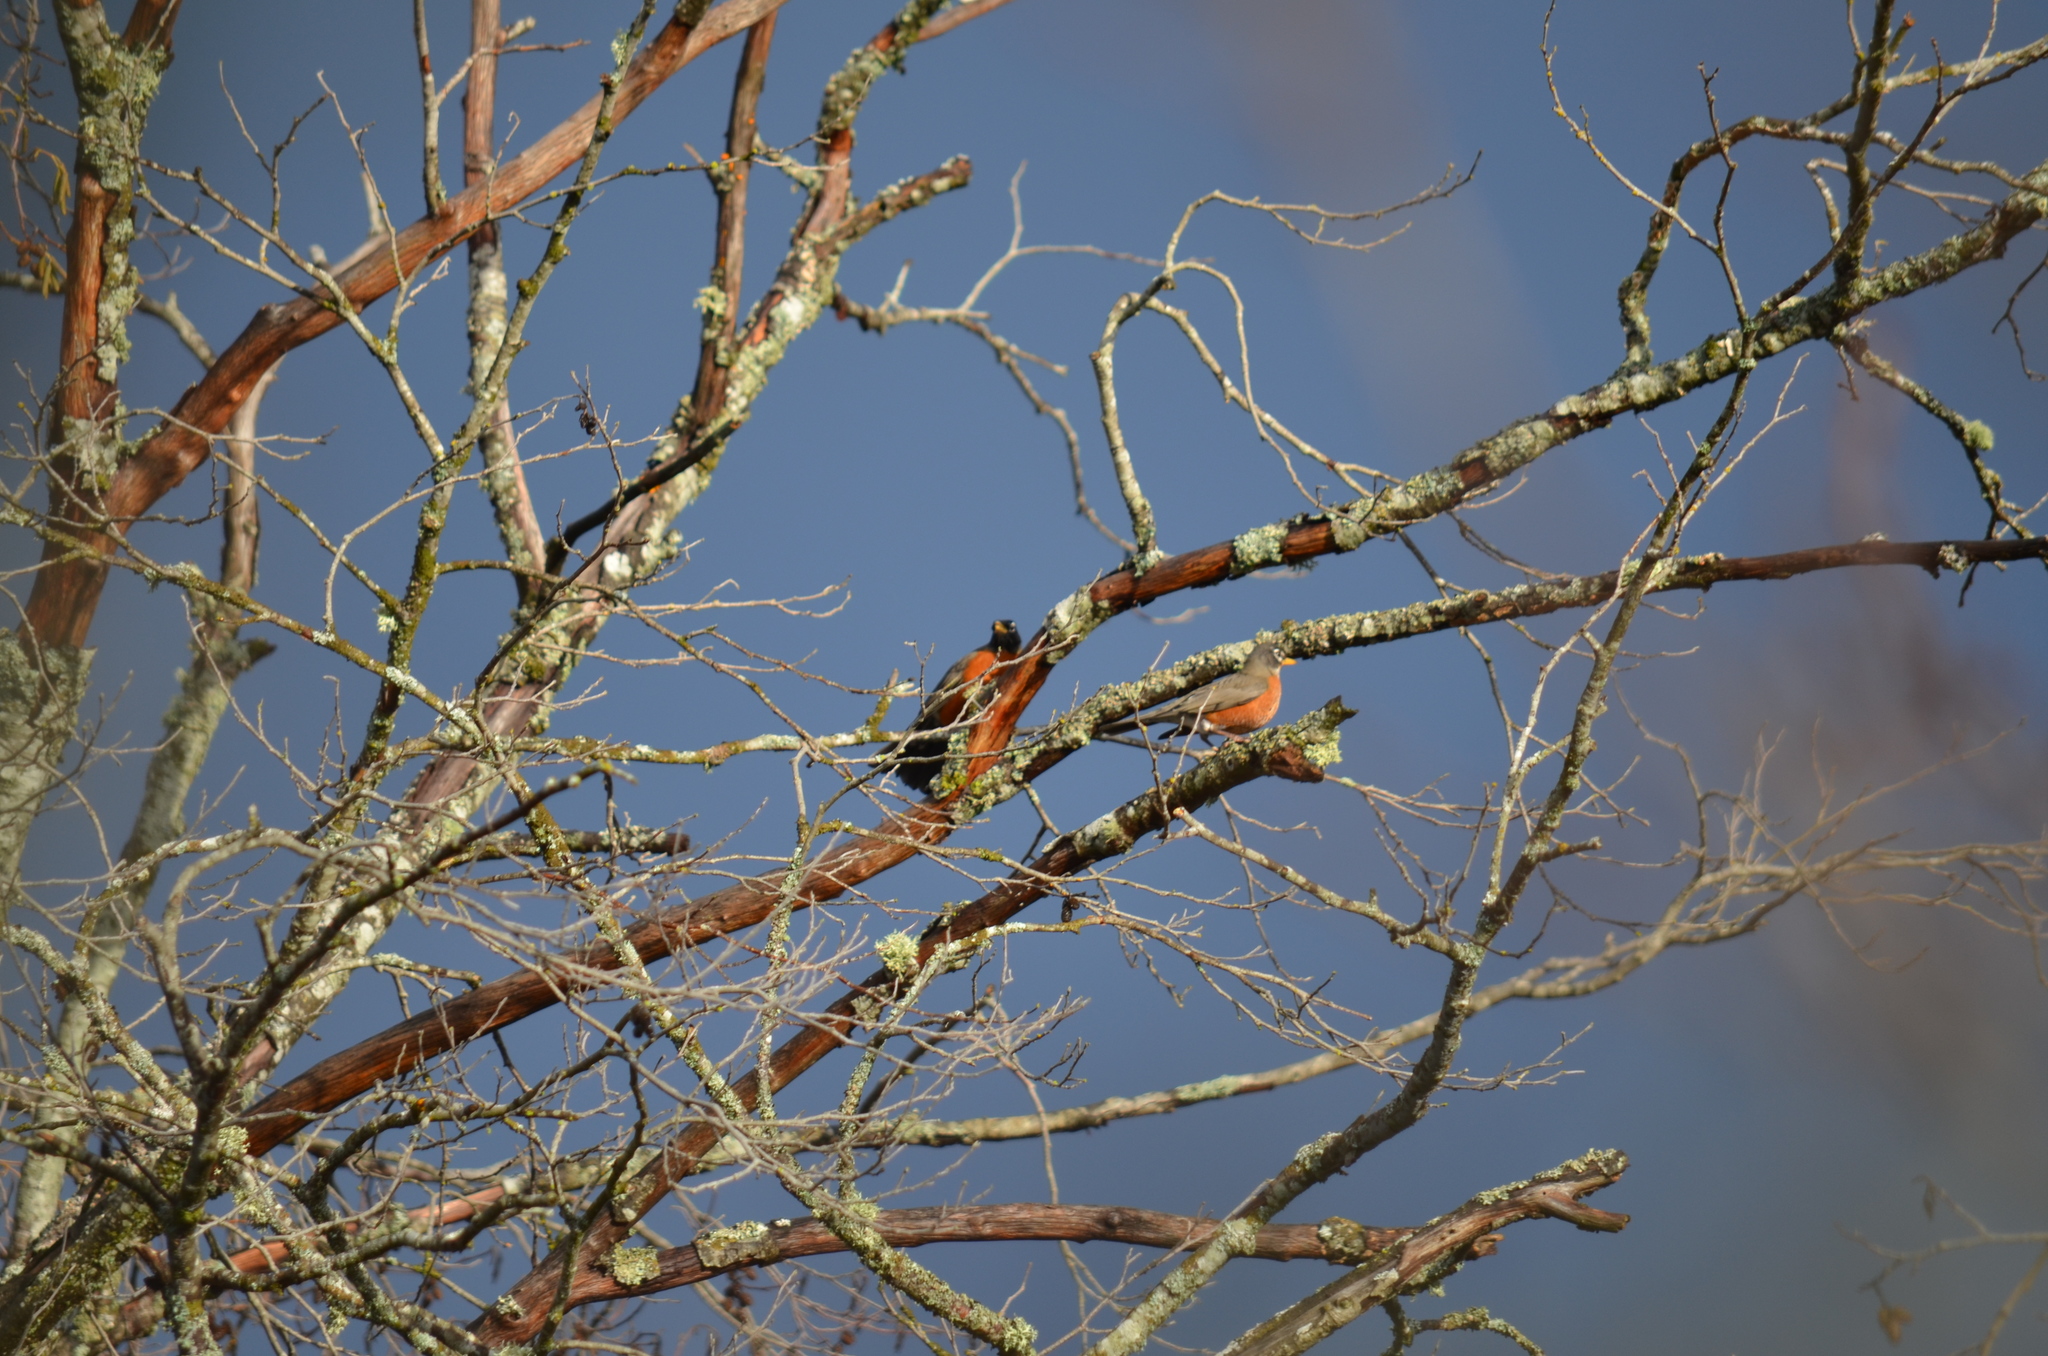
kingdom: Animalia
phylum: Chordata
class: Aves
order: Passeriformes
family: Turdidae
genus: Turdus
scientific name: Turdus migratorius
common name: American robin
